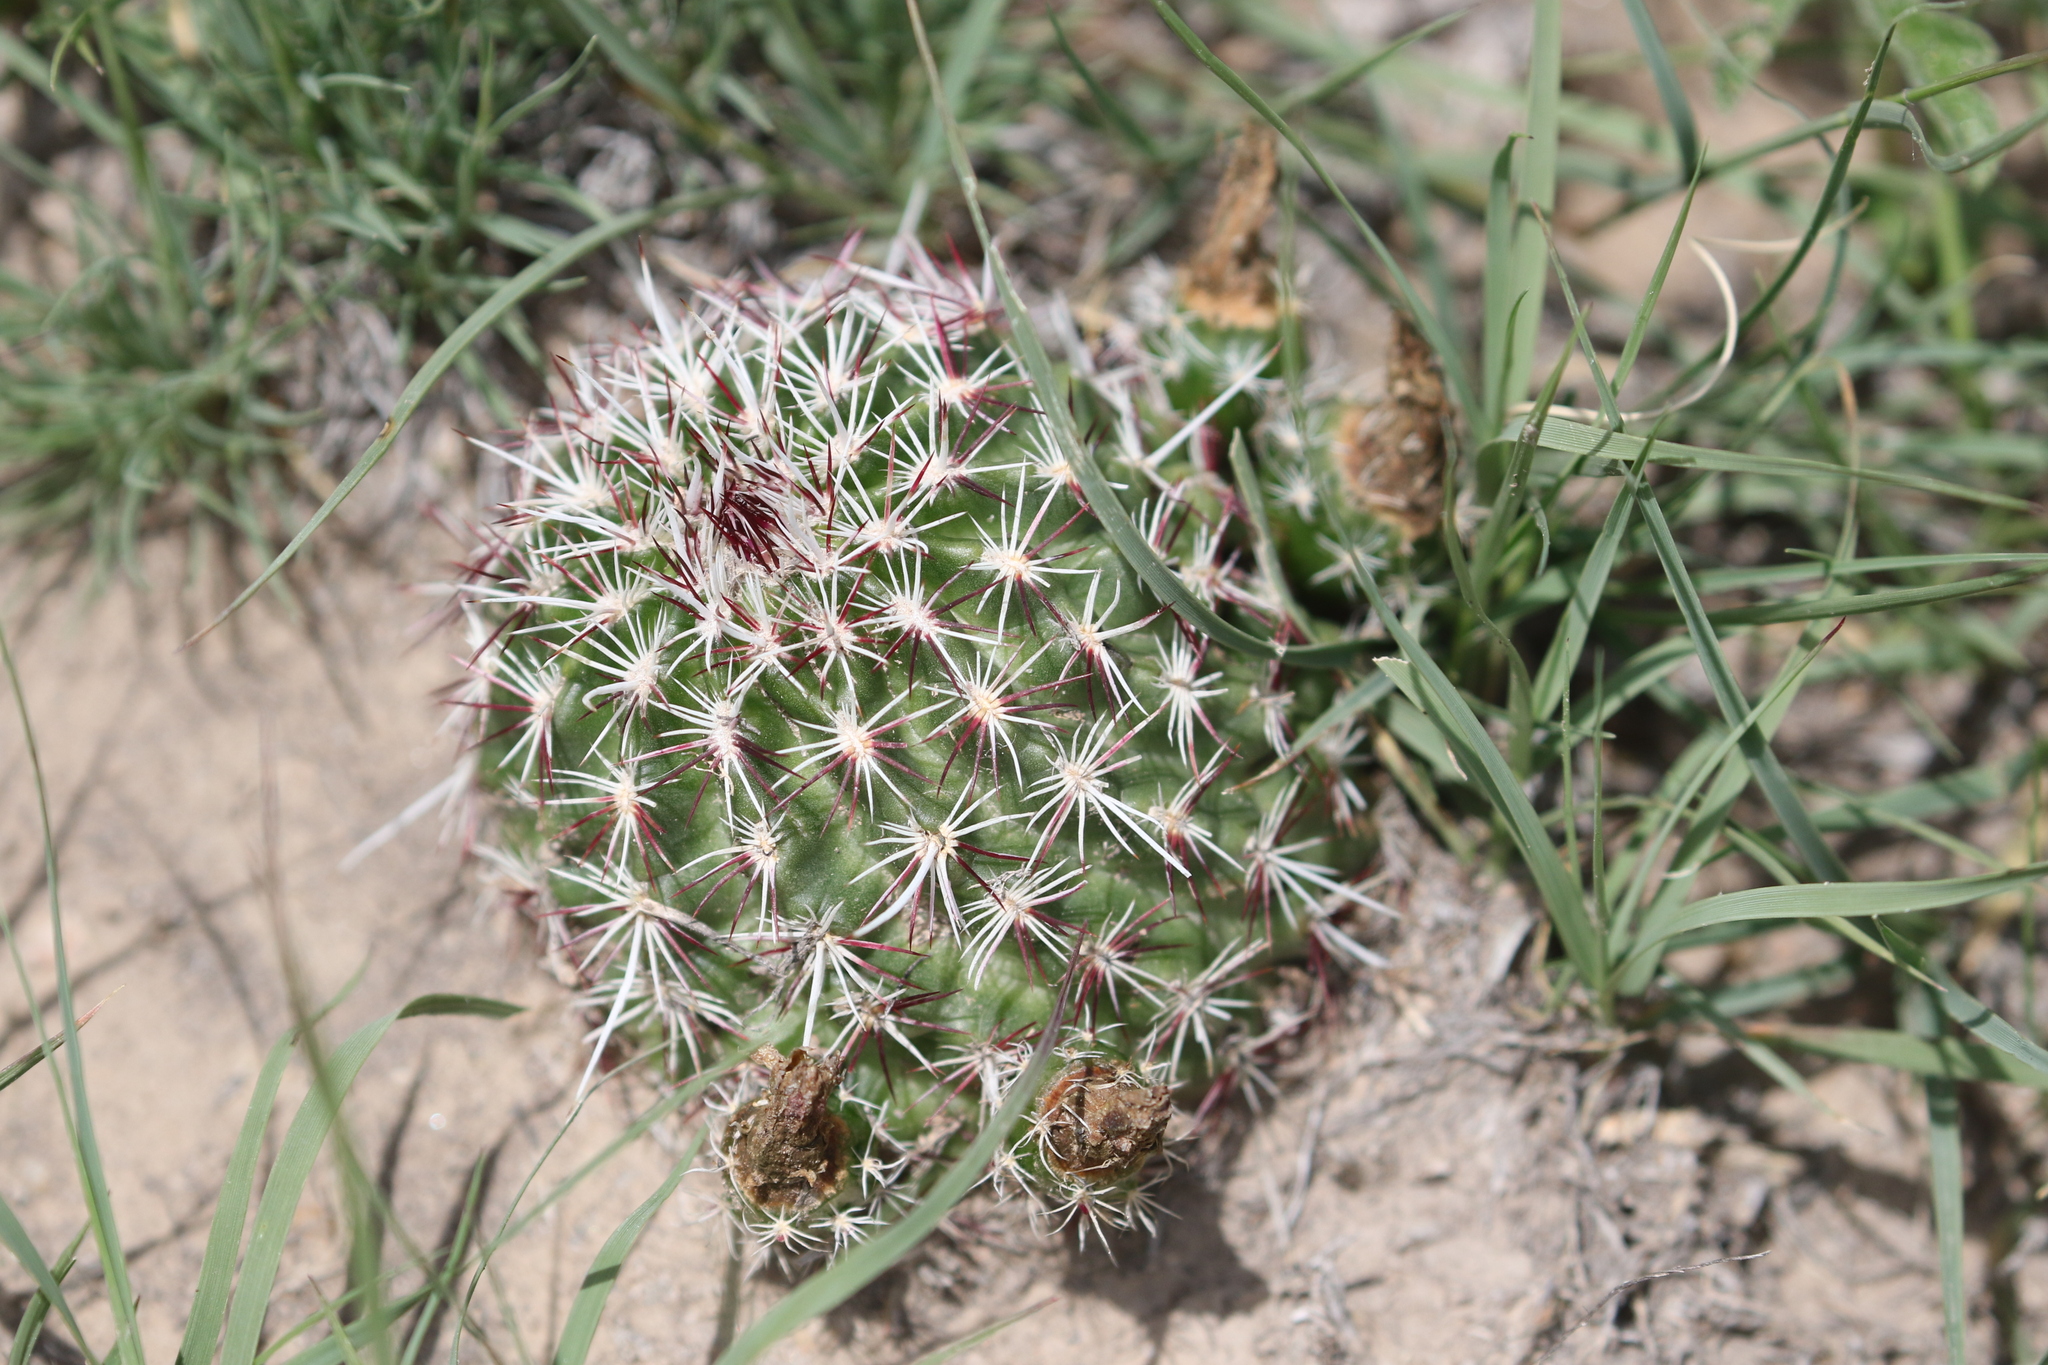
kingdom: Plantae
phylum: Tracheophyta
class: Magnoliopsida
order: Caryophyllales
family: Cactaceae
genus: Echinocereus
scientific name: Echinocereus viridiflorus
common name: Nylon hedgehog cactus
